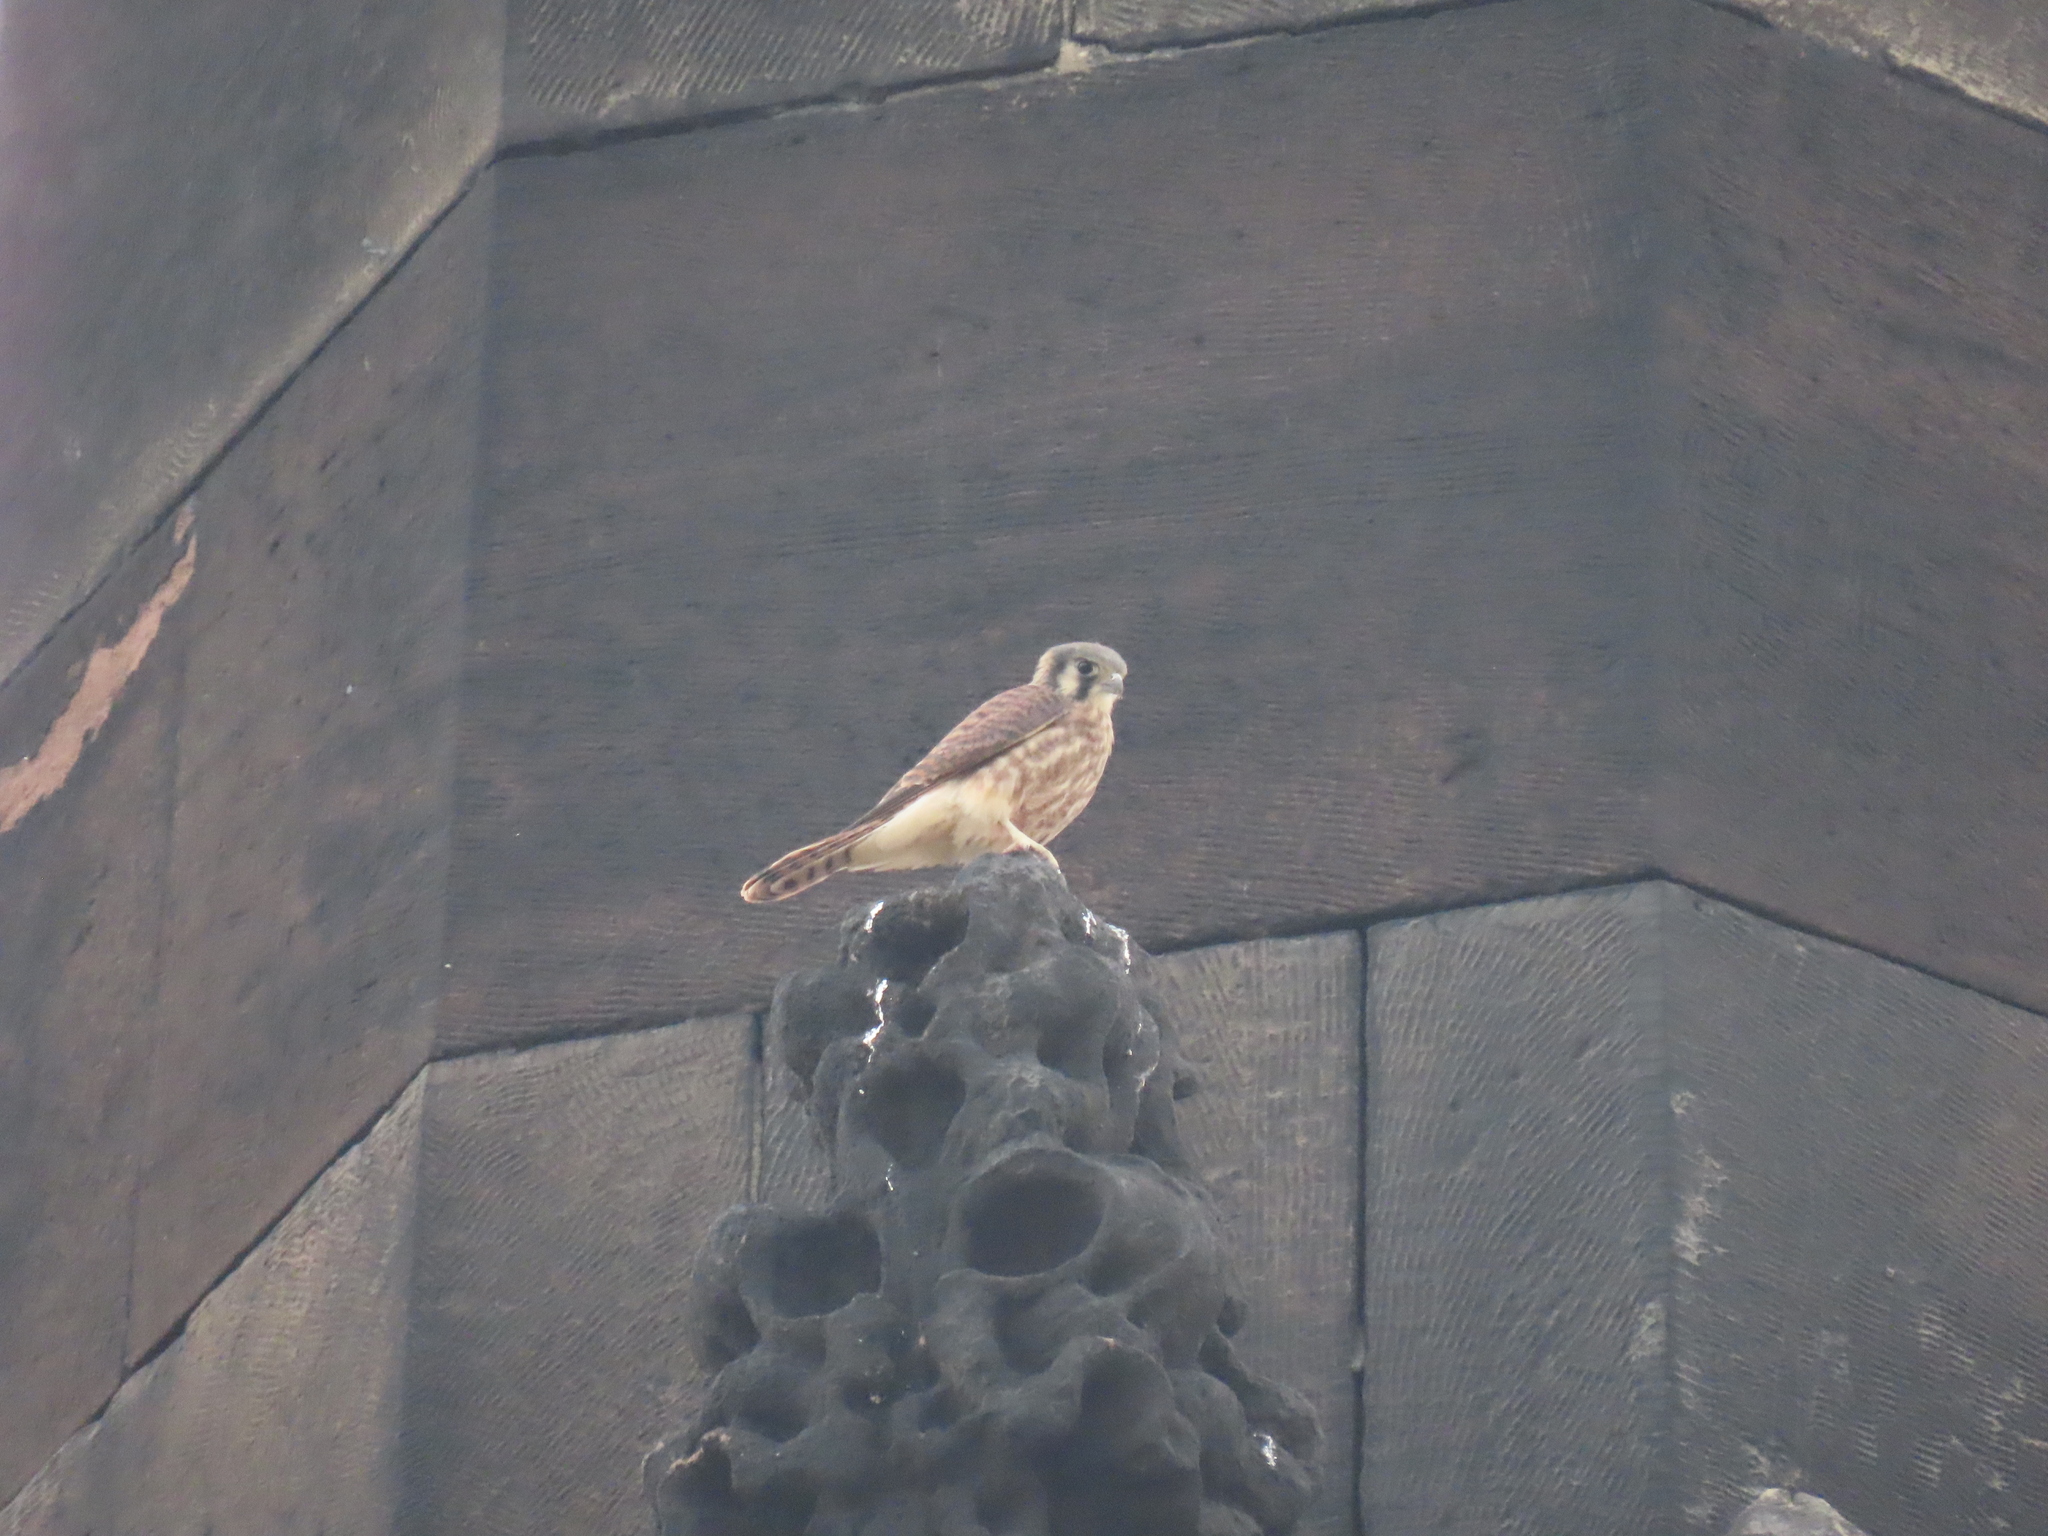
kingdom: Animalia
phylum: Chordata
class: Aves
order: Falconiformes
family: Falconidae
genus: Falco
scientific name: Falco sparverius
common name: American kestrel
